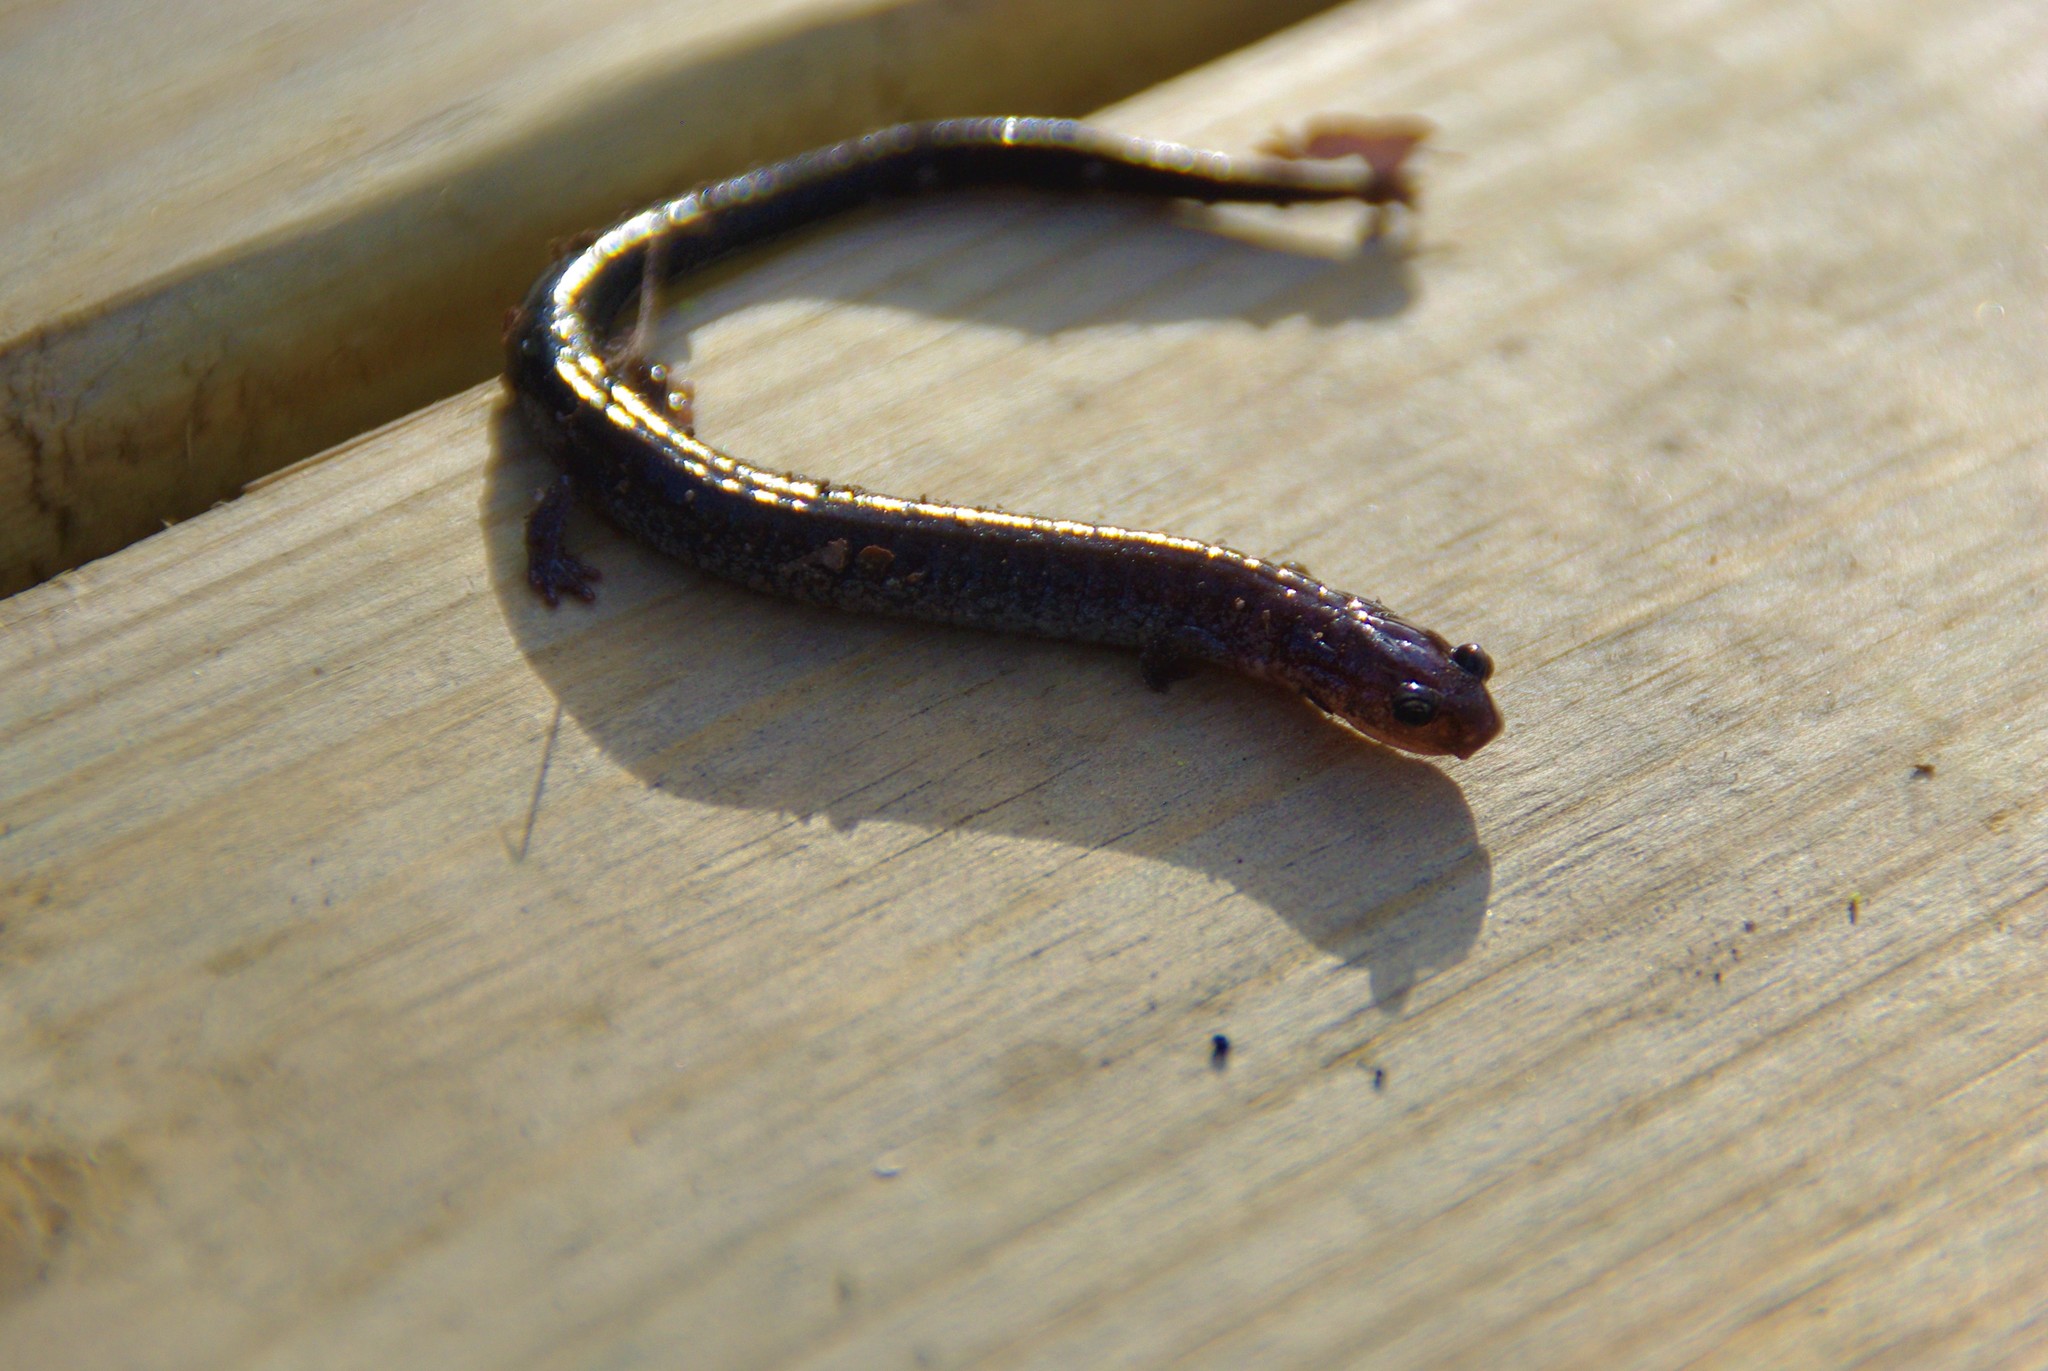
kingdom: Animalia
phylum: Chordata
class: Amphibia
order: Caudata
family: Plethodontidae
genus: Plethodon
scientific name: Plethodon cinereus
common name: Redback salamander
